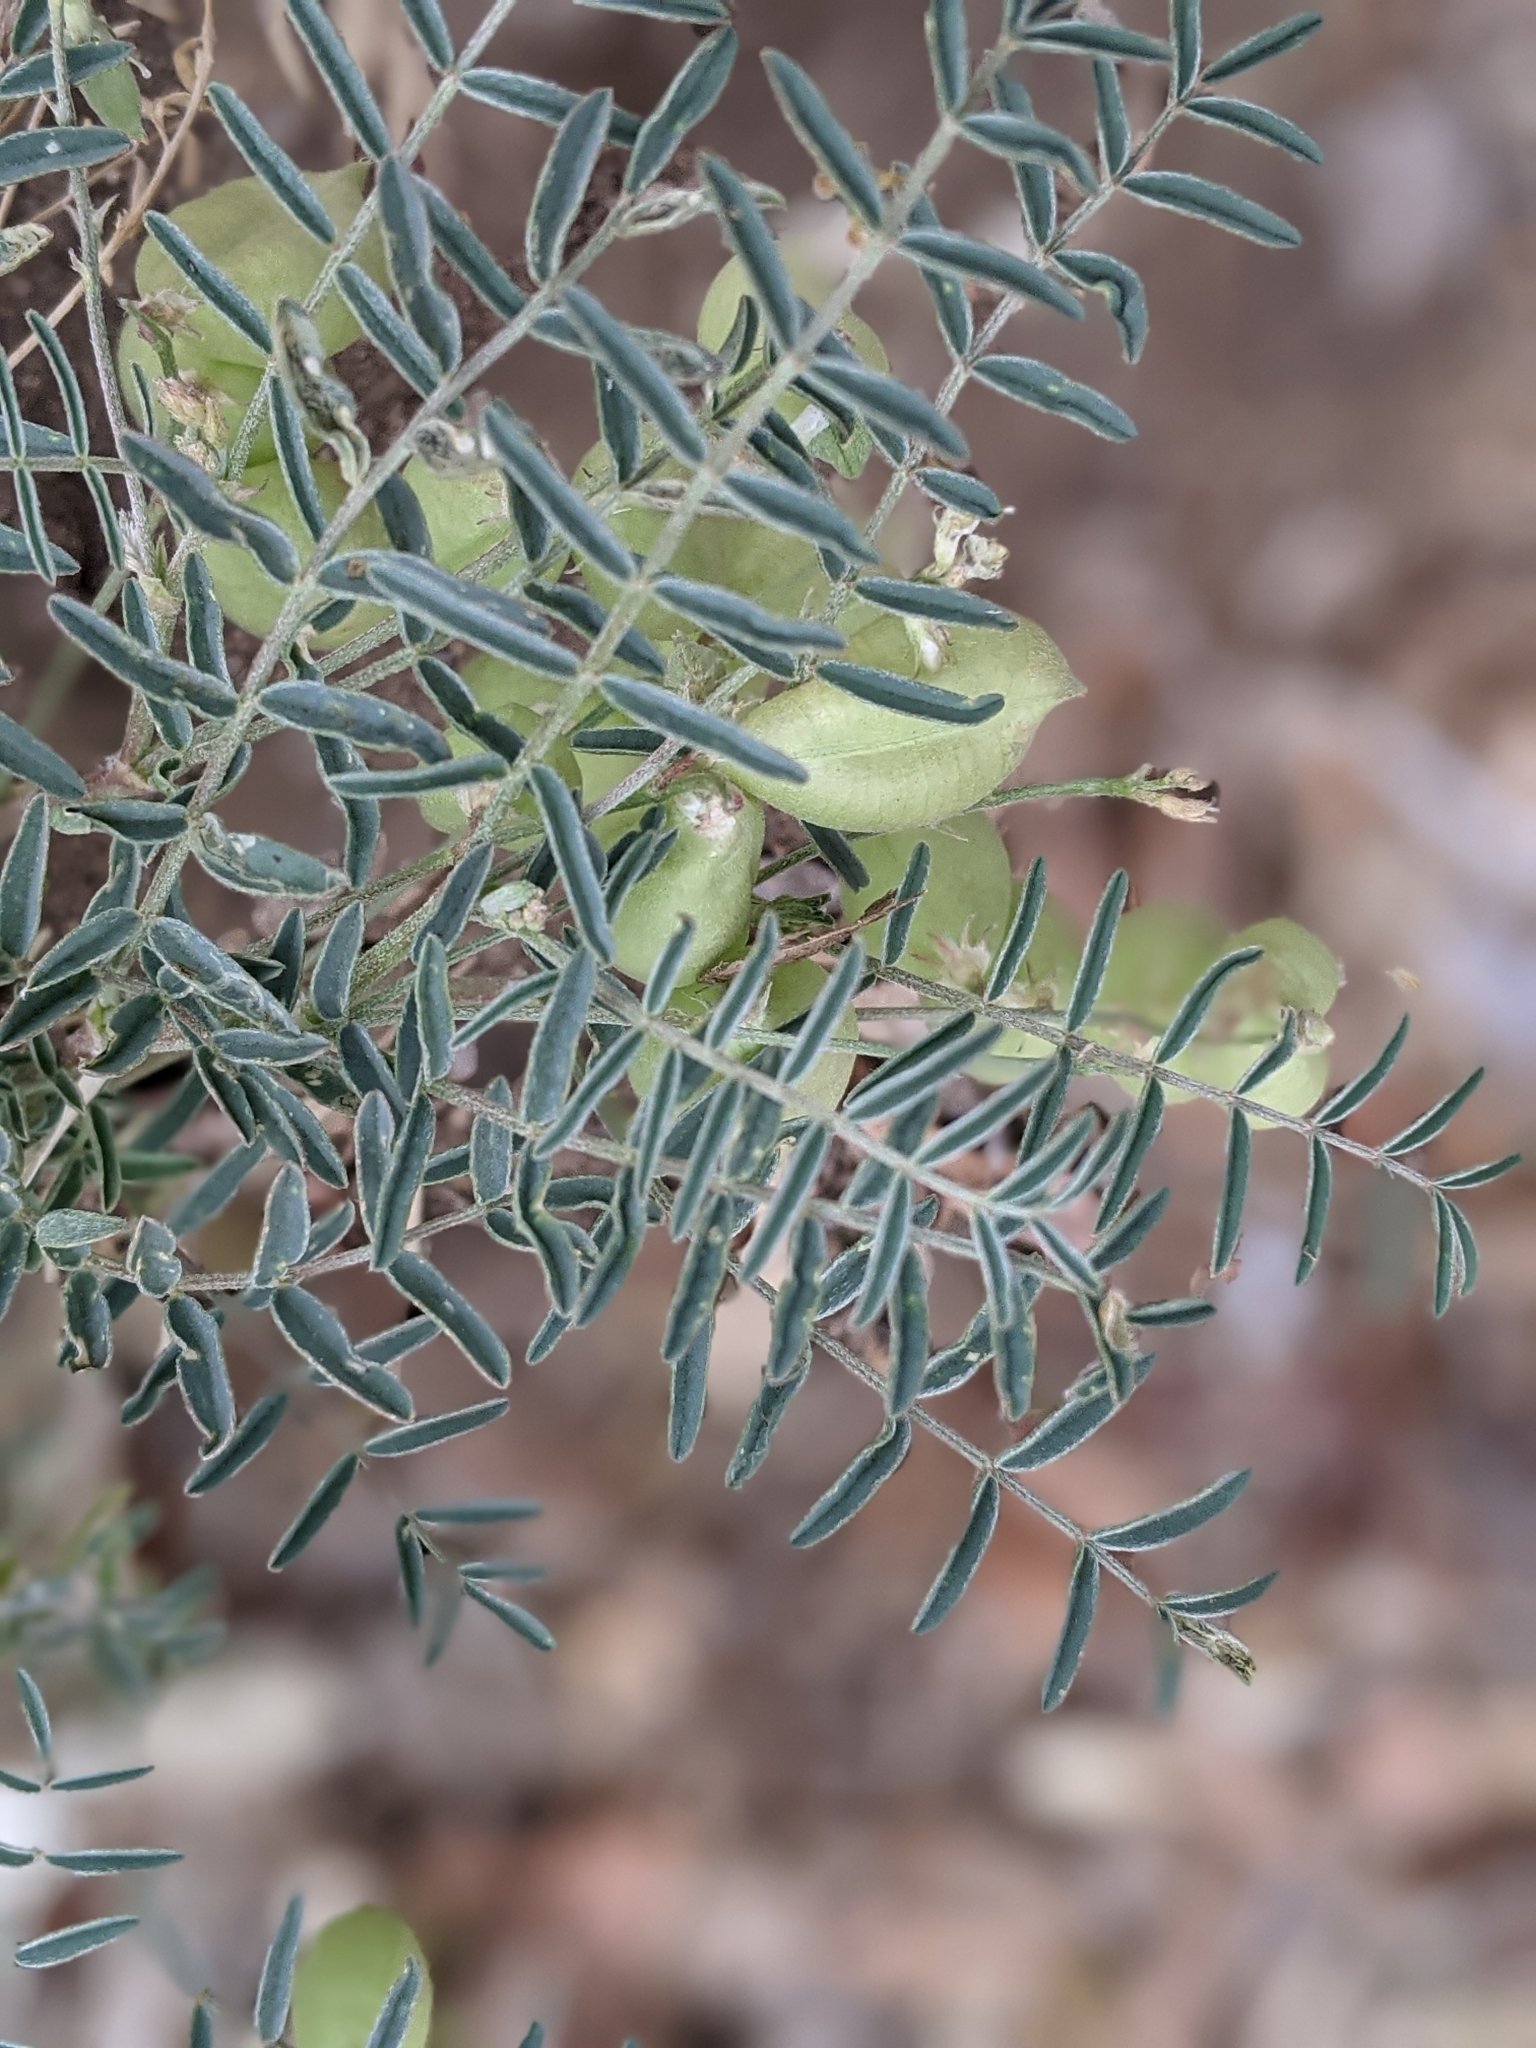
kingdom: Plantae
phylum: Tracheophyta
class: Magnoliopsida
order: Fabales
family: Fabaceae
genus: Astragalus
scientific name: Astragalus allochrous
